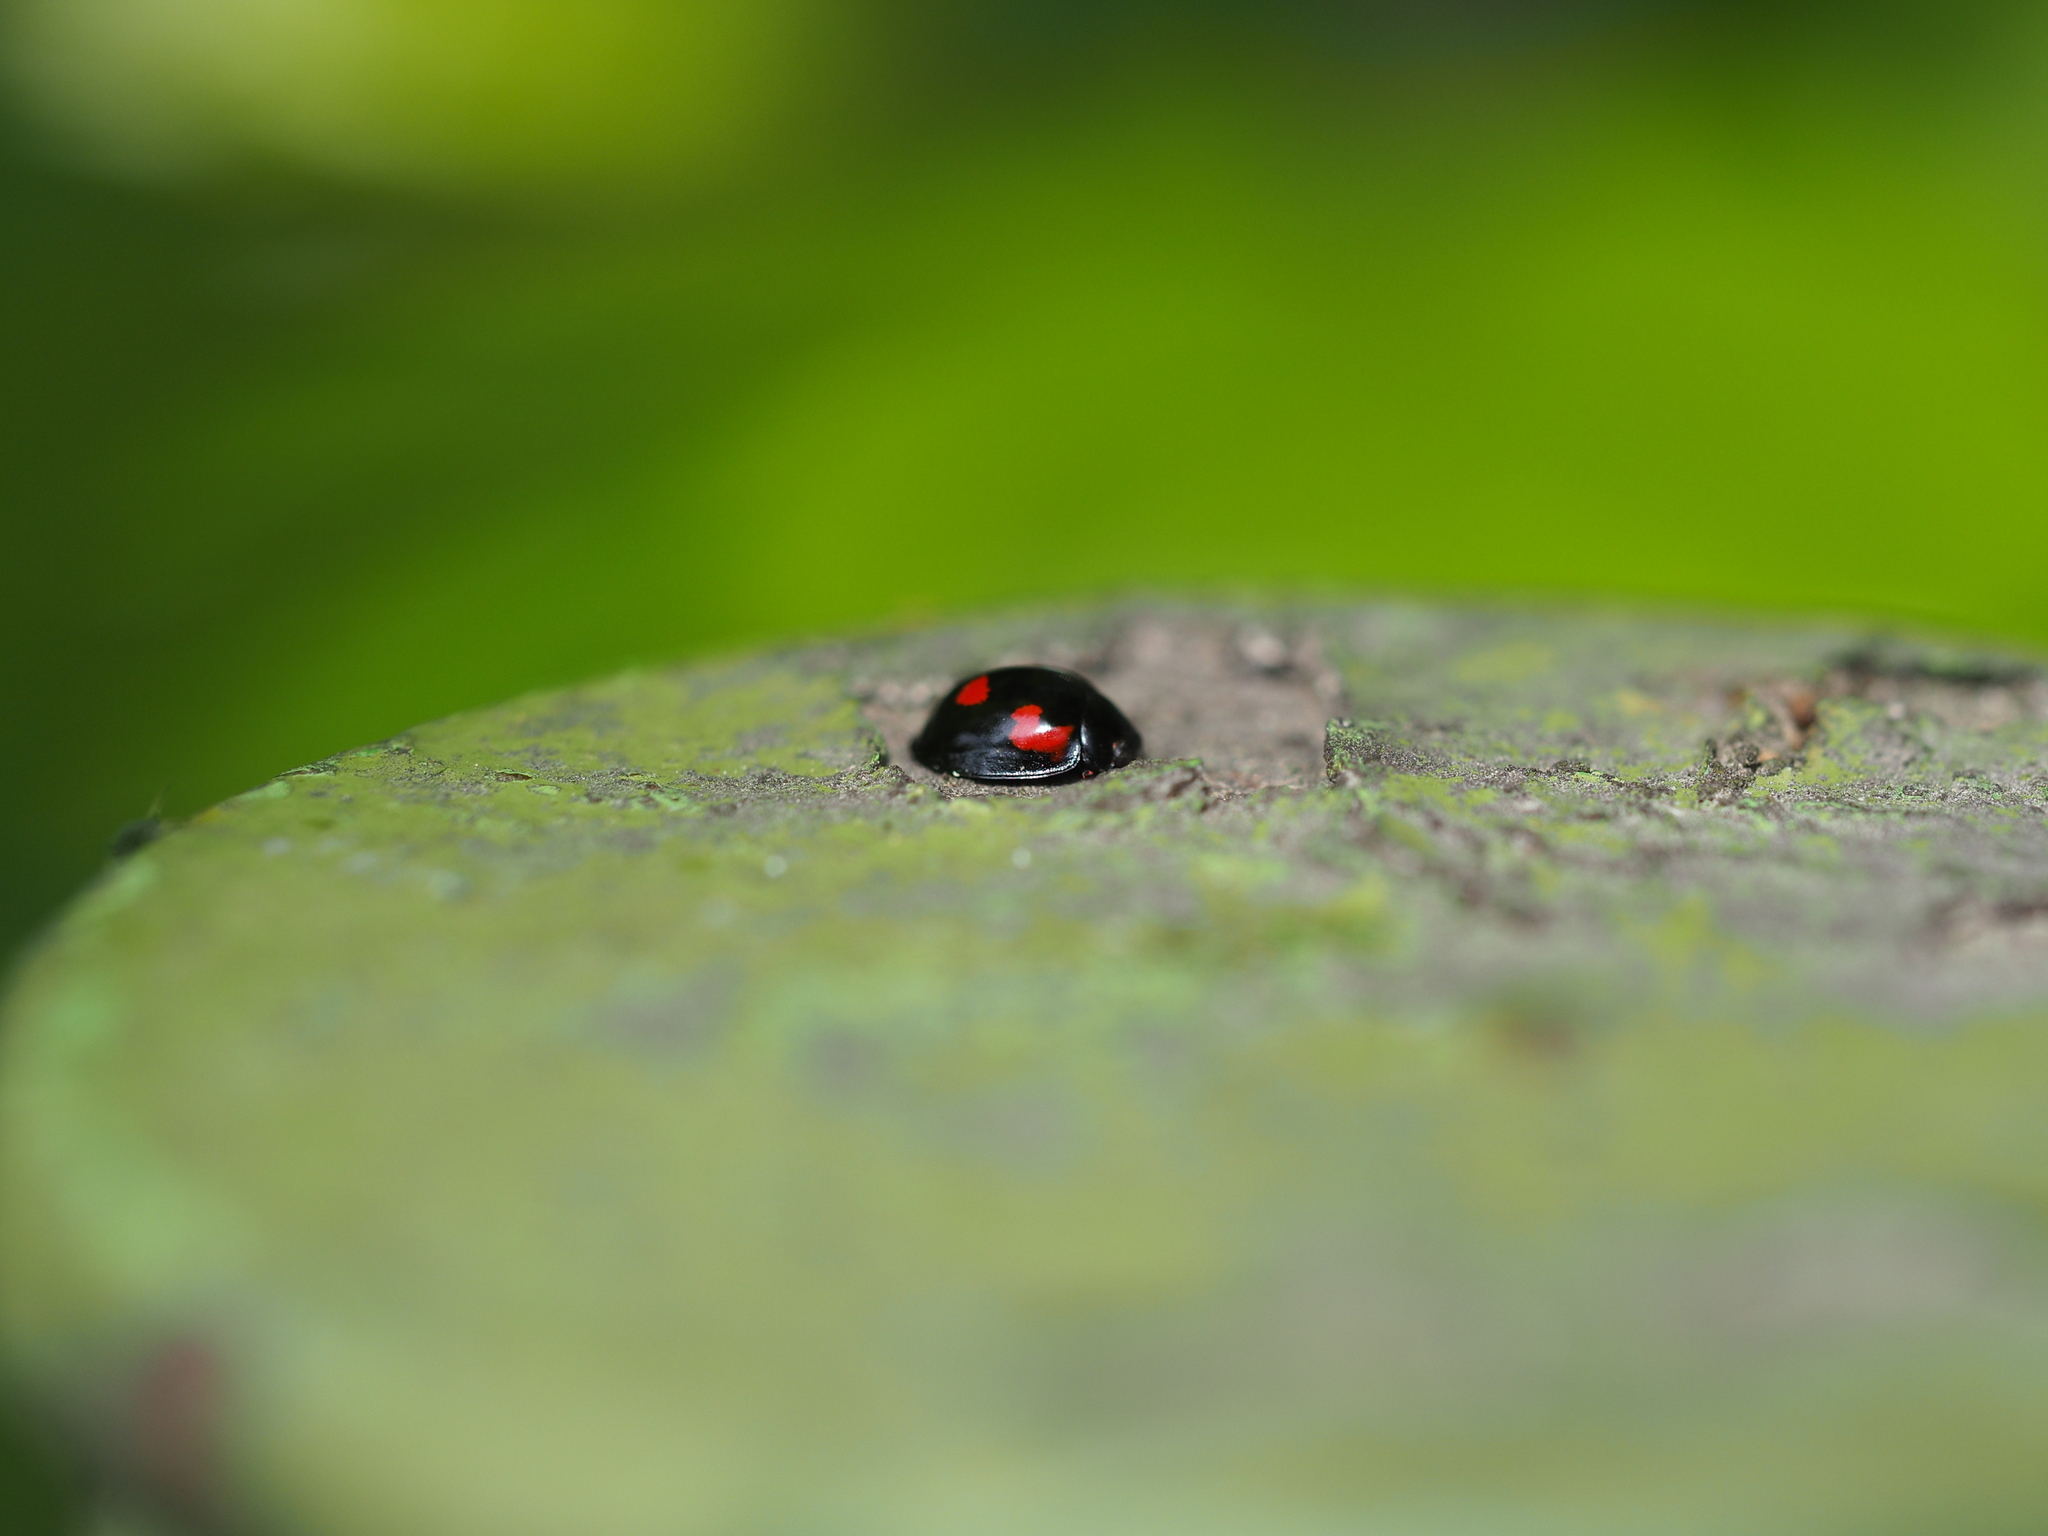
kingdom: Animalia
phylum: Arthropoda
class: Insecta
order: Coleoptera
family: Coccinellidae
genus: Brumus
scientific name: Brumus quadripustulatus
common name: Ladybird beetle
